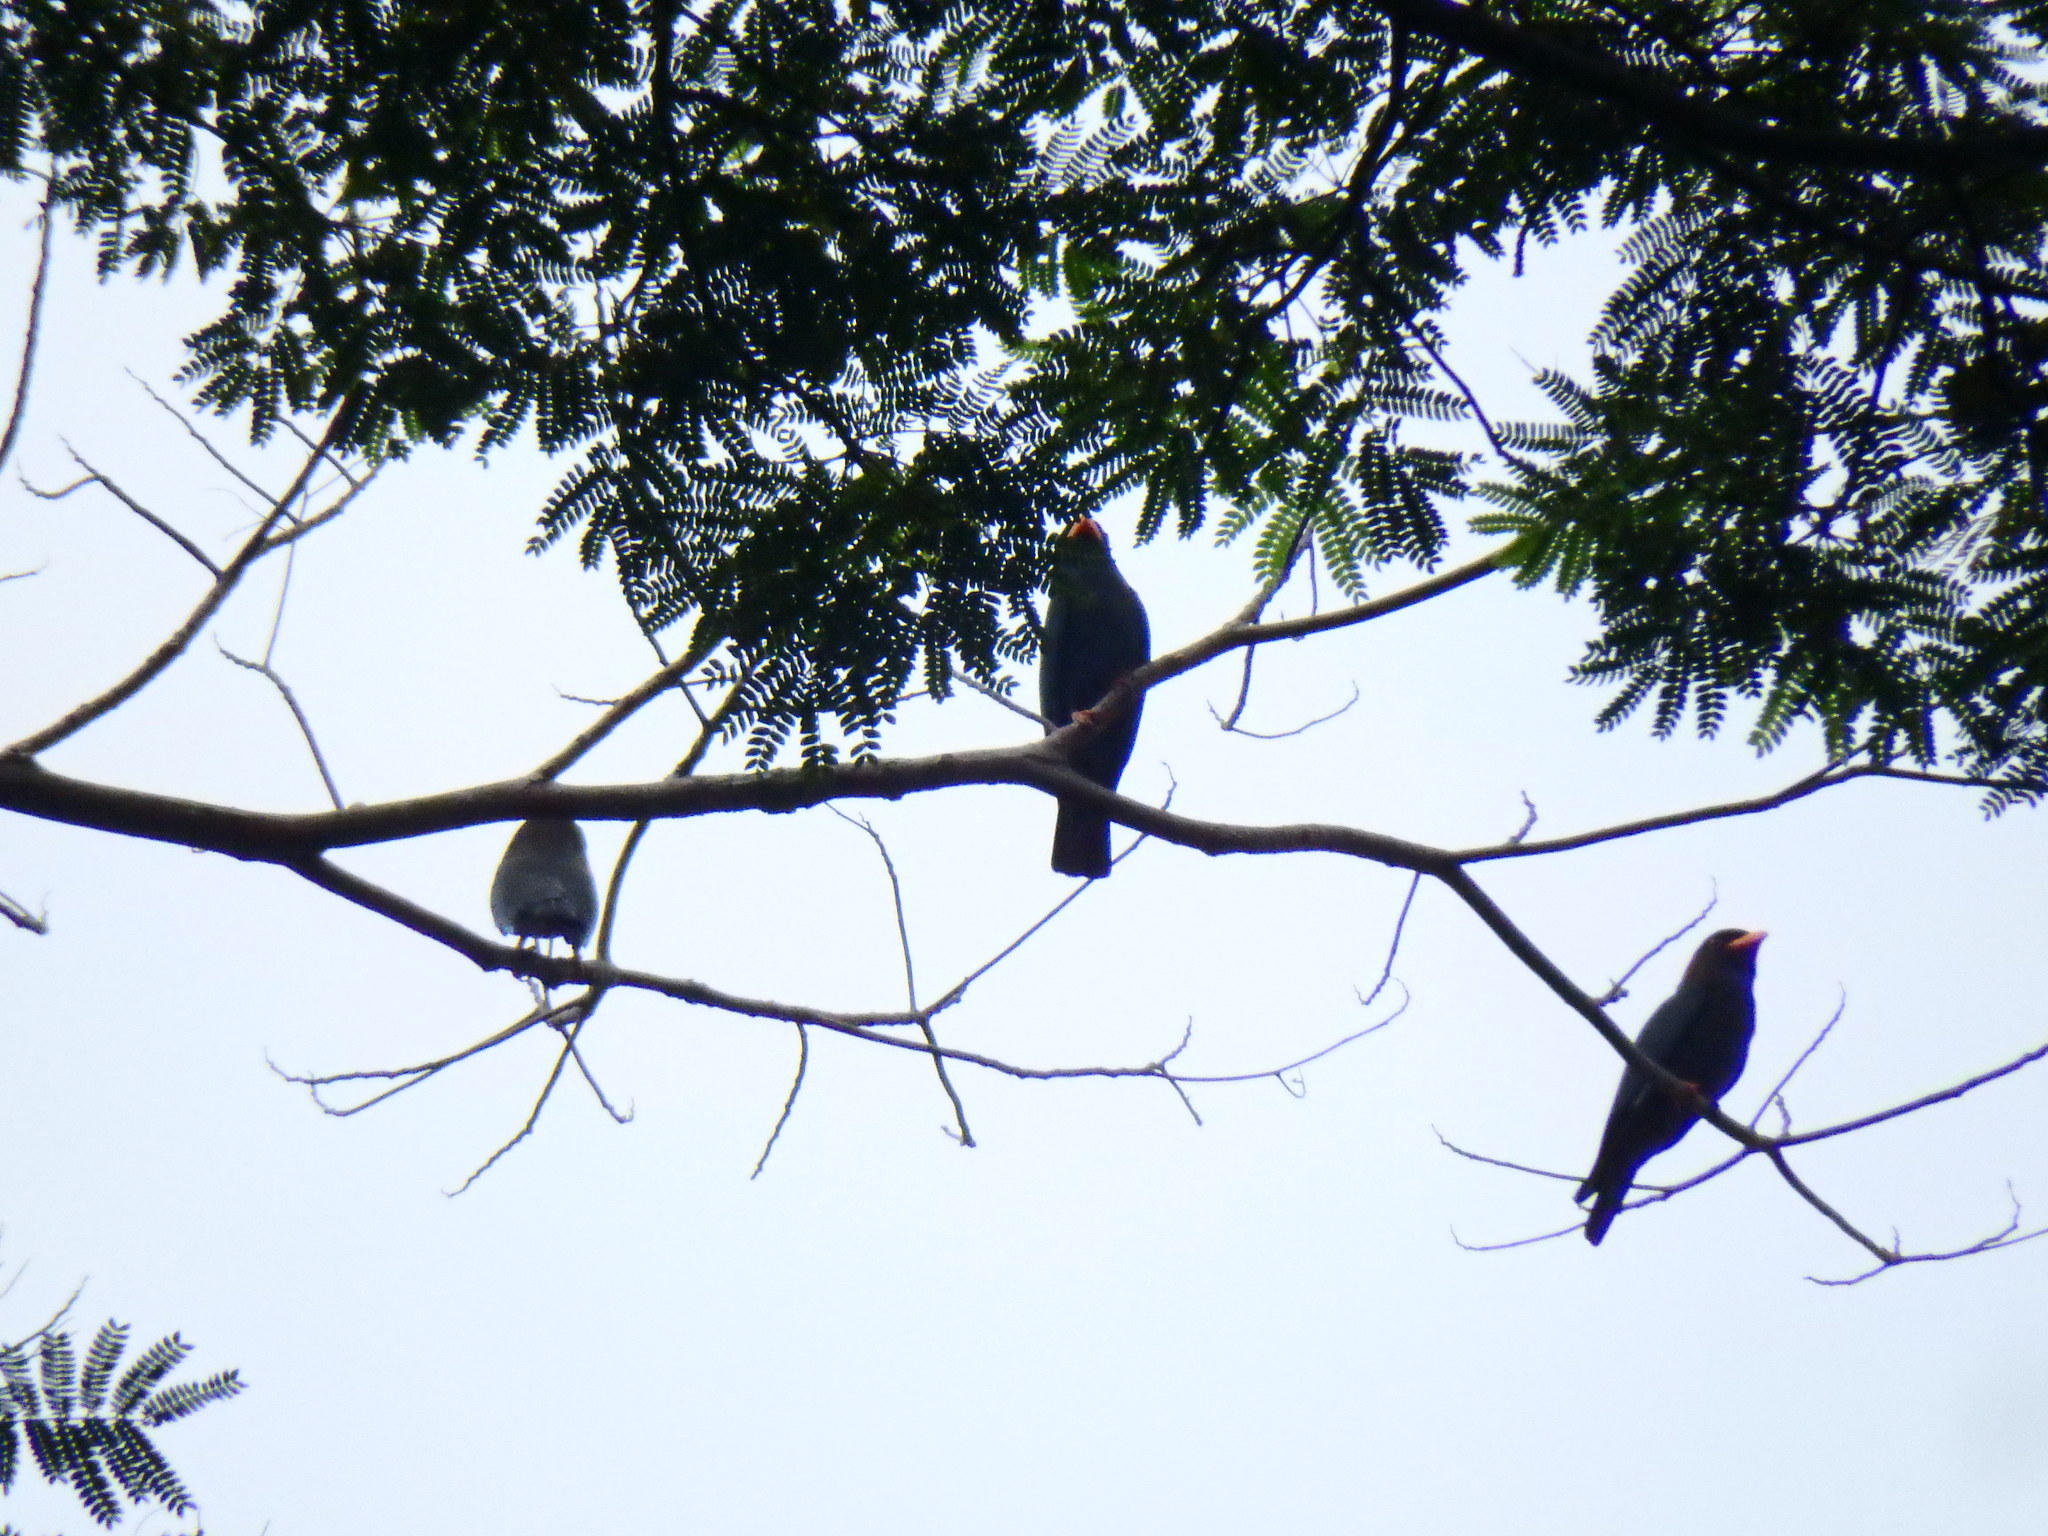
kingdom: Animalia
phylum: Chordata
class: Aves
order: Coraciiformes
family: Coraciidae
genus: Eurystomus
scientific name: Eurystomus orientalis
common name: Oriental dollarbird
